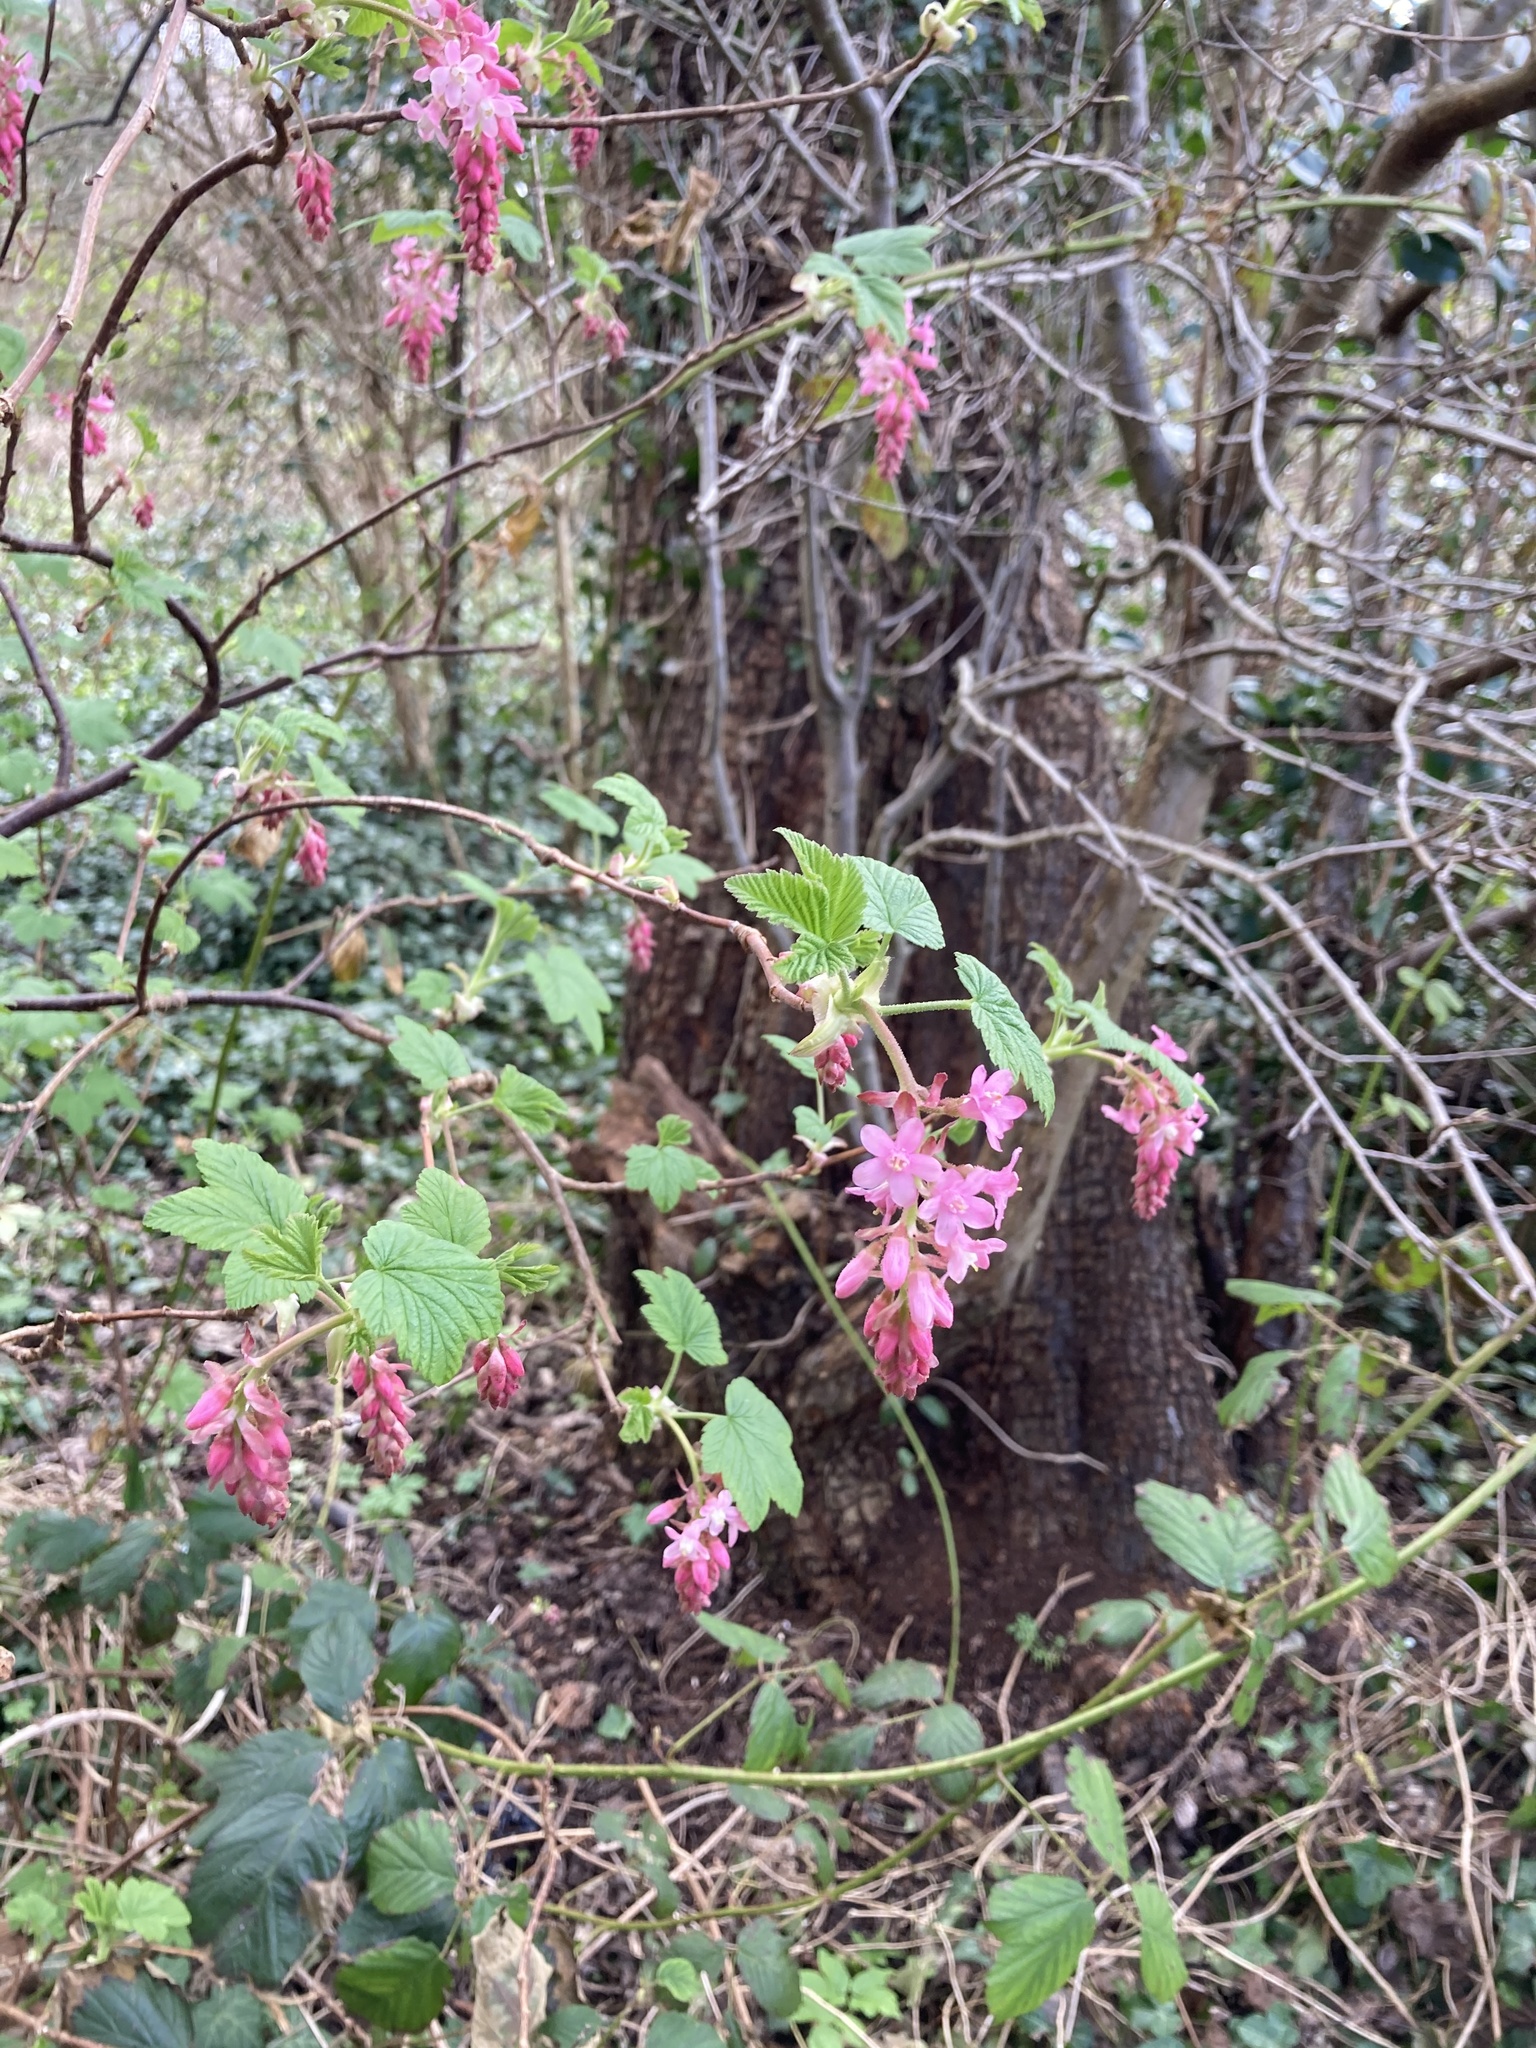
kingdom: Plantae
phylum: Tracheophyta
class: Magnoliopsida
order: Saxifragales
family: Grossulariaceae
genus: Ribes
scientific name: Ribes sanguineum
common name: Flowering currant
